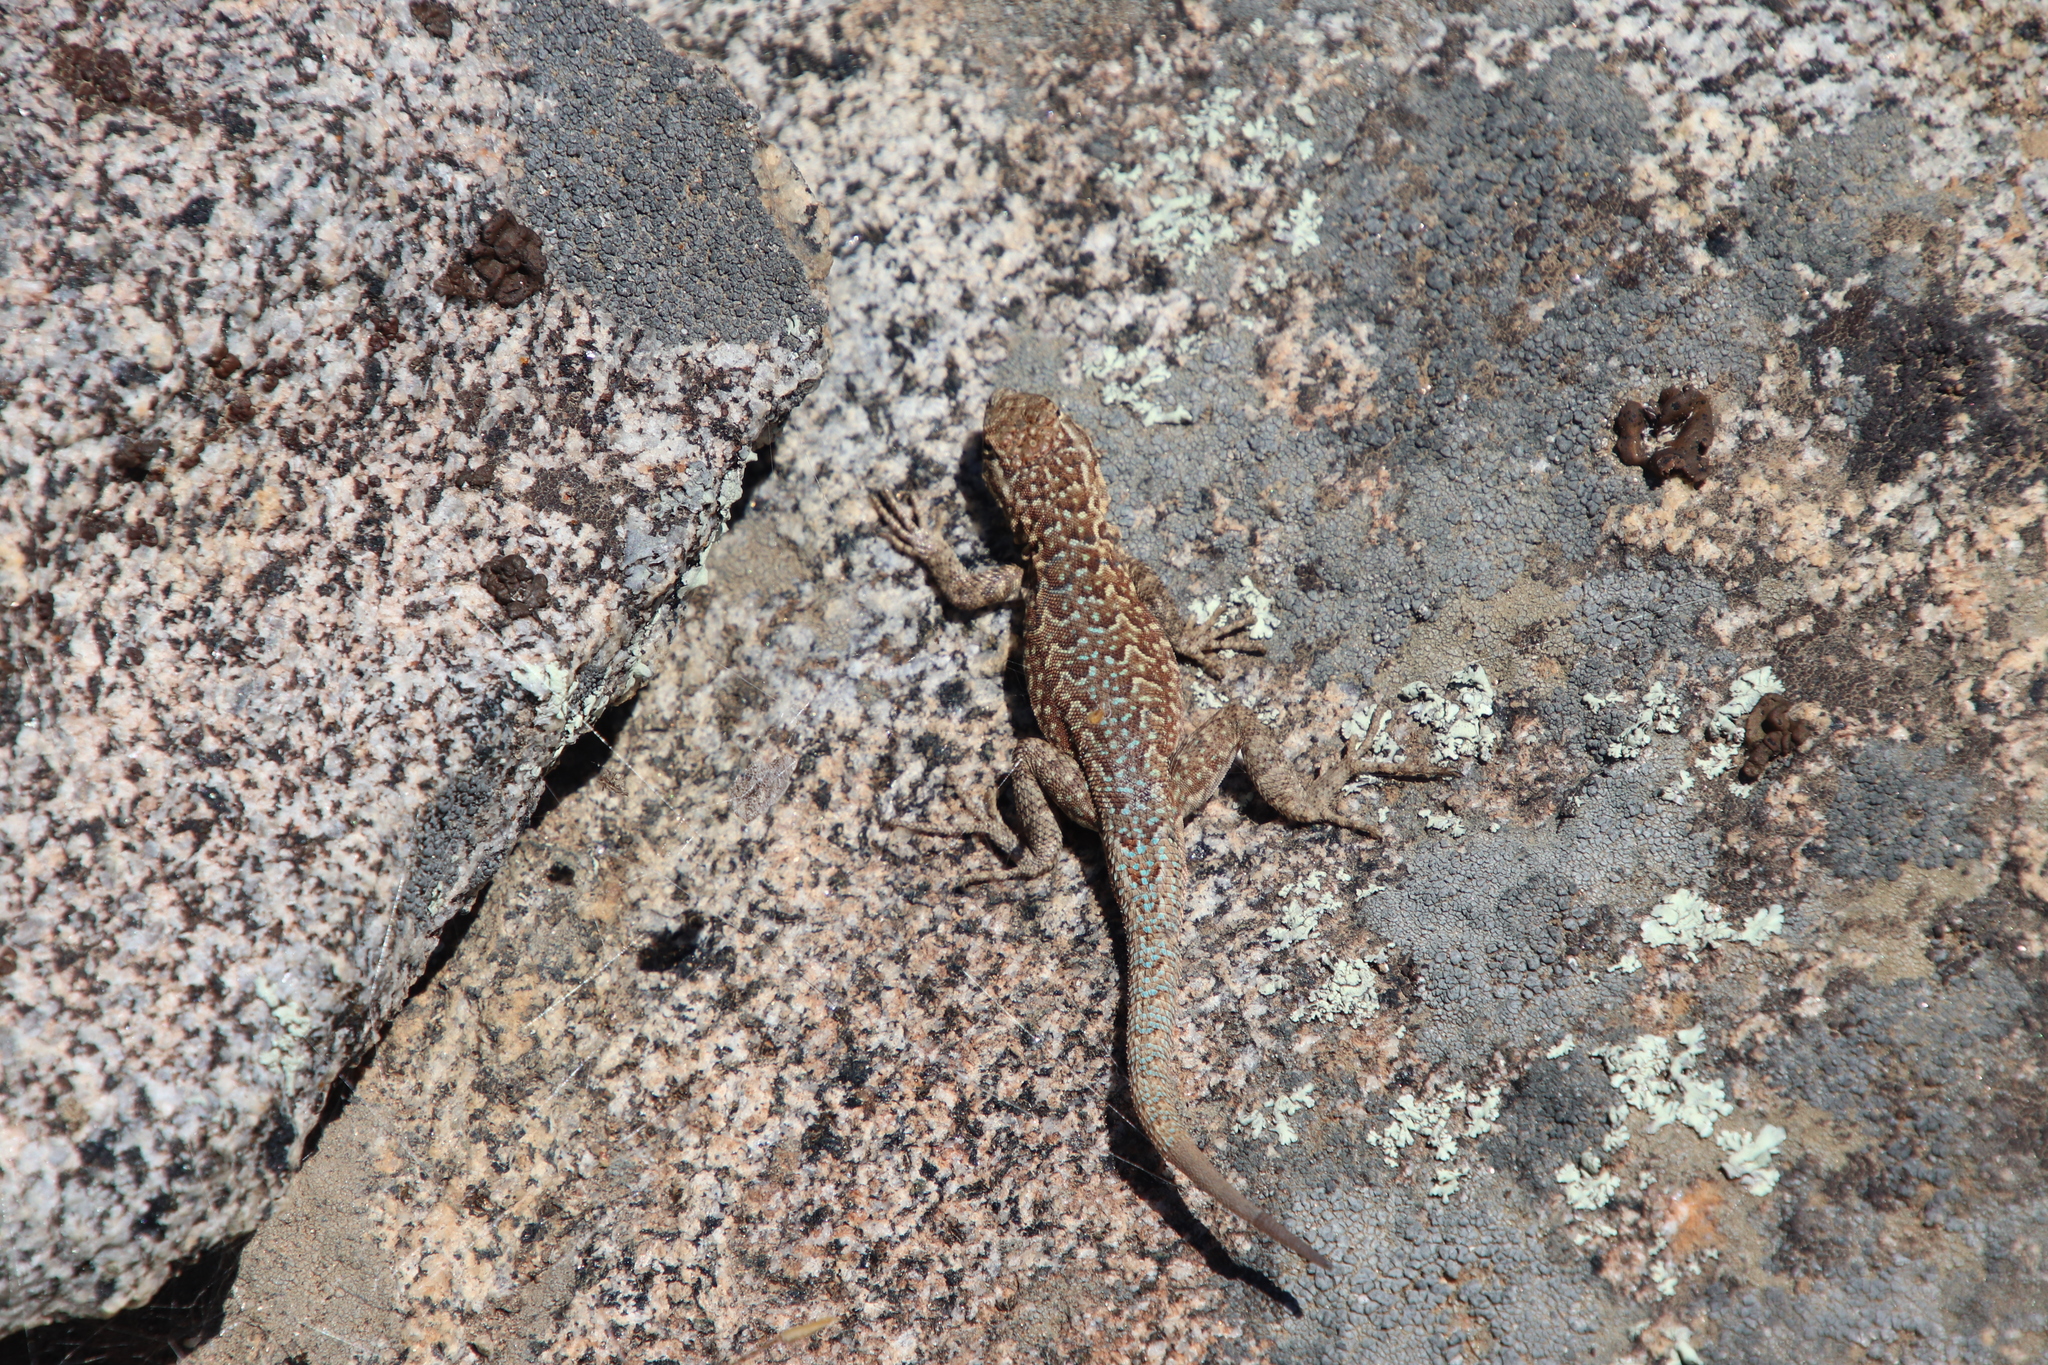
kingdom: Animalia
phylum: Chordata
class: Squamata
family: Phrynosomatidae
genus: Uta
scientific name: Uta stansburiana
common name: Side-blotched lizard
